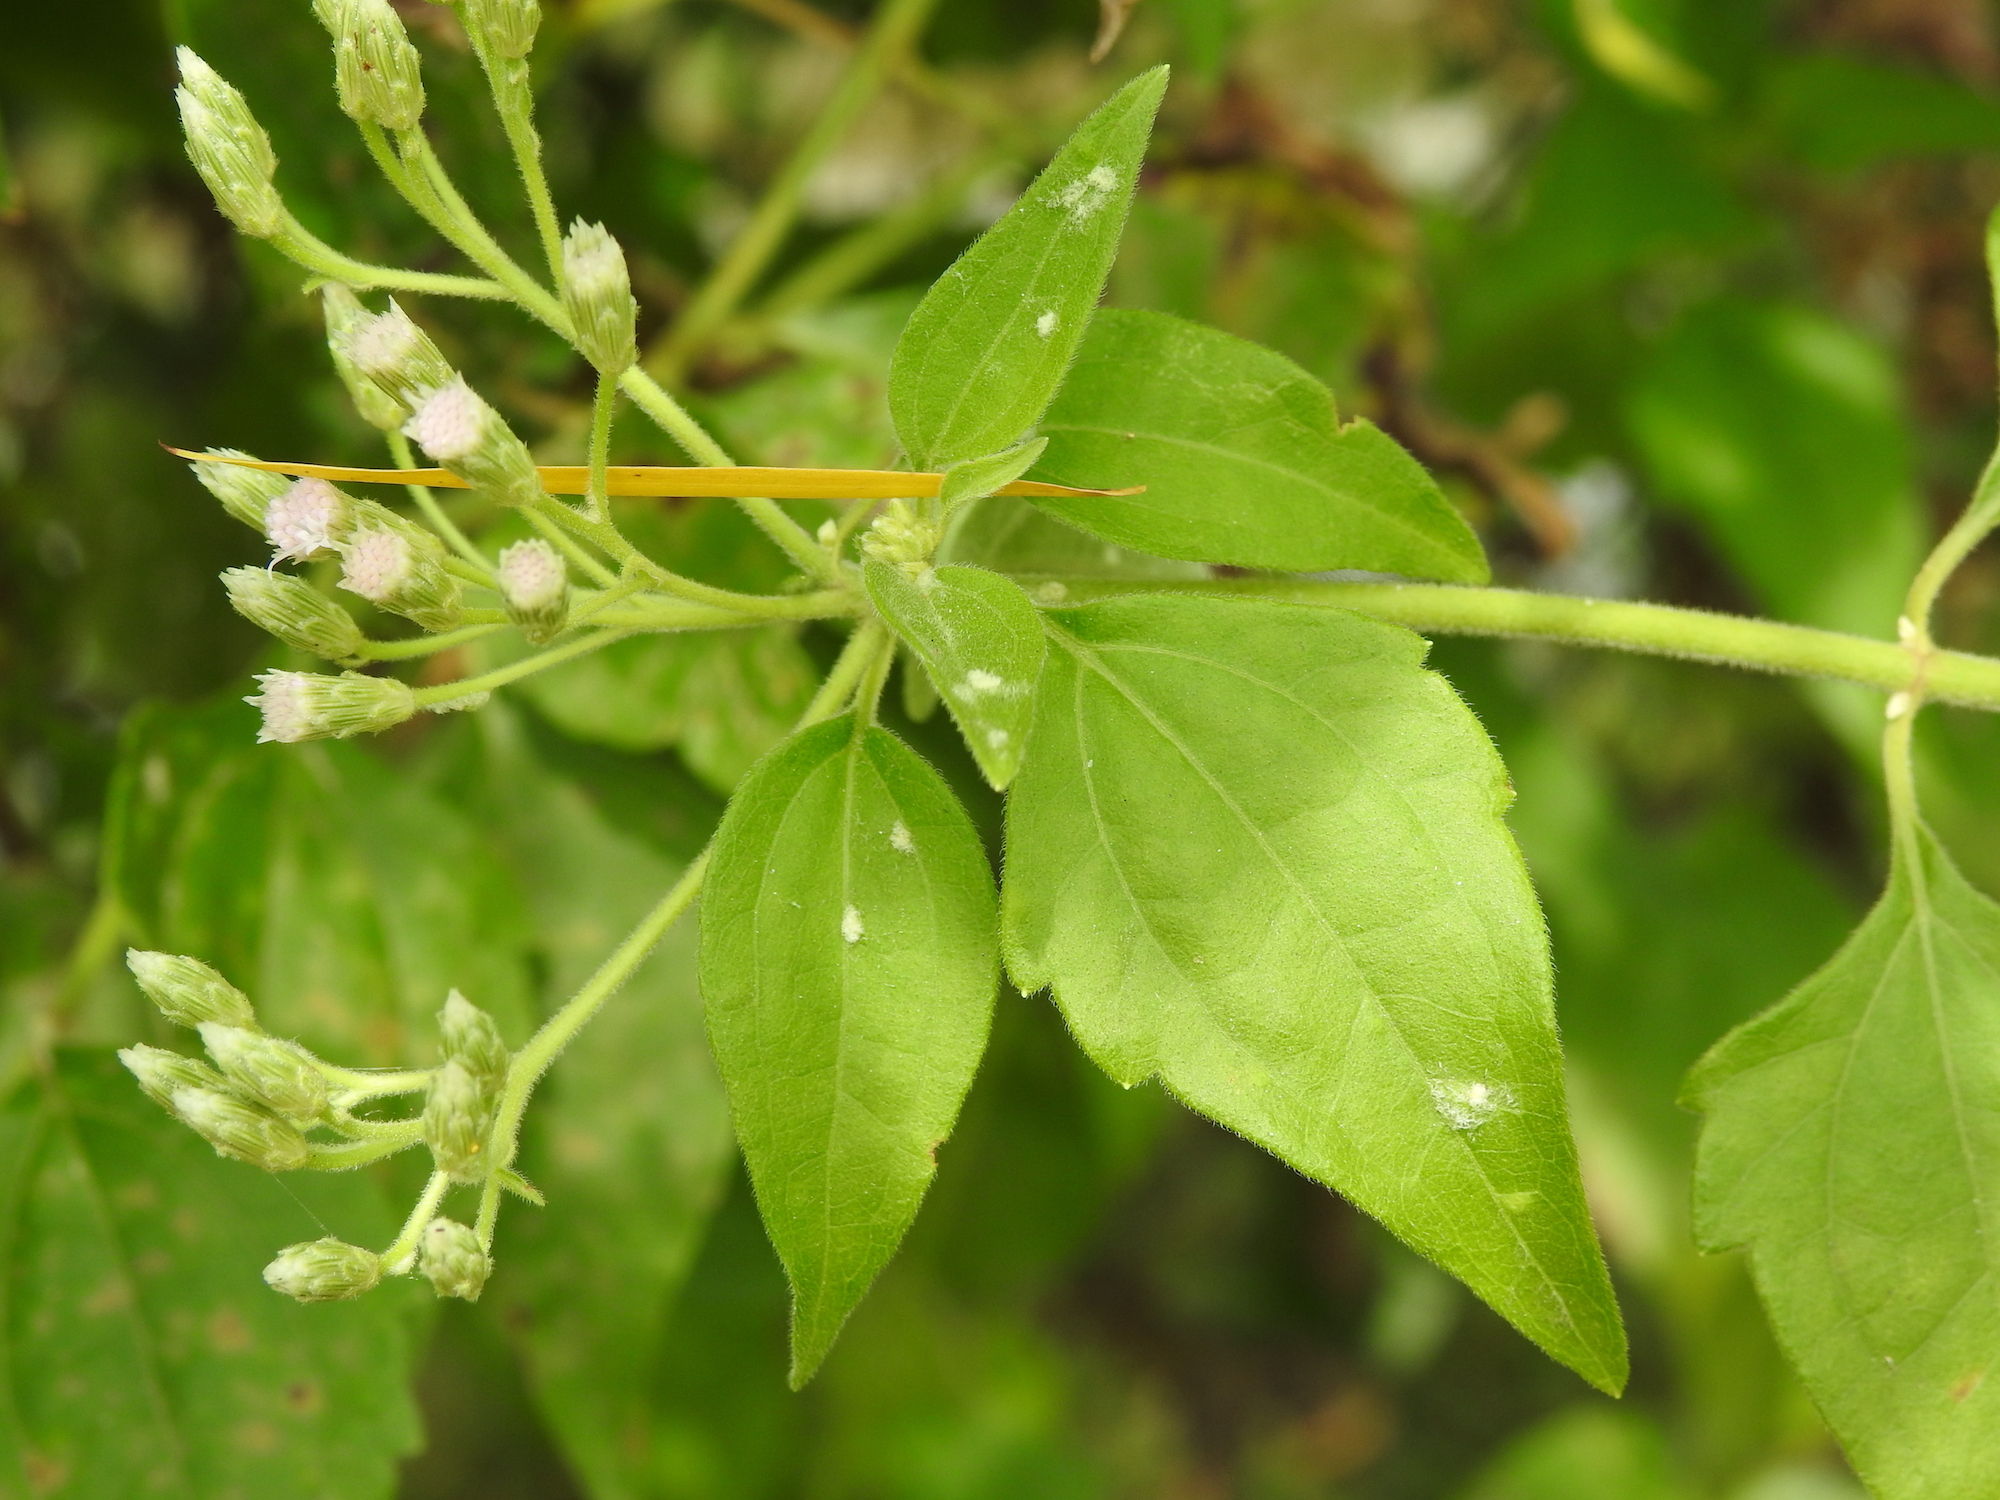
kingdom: Plantae
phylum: Tracheophyta
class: Magnoliopsida
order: Asterales
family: Asteraceae
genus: Chromolaena
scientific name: Chromolaena odorata
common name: Siamweed
